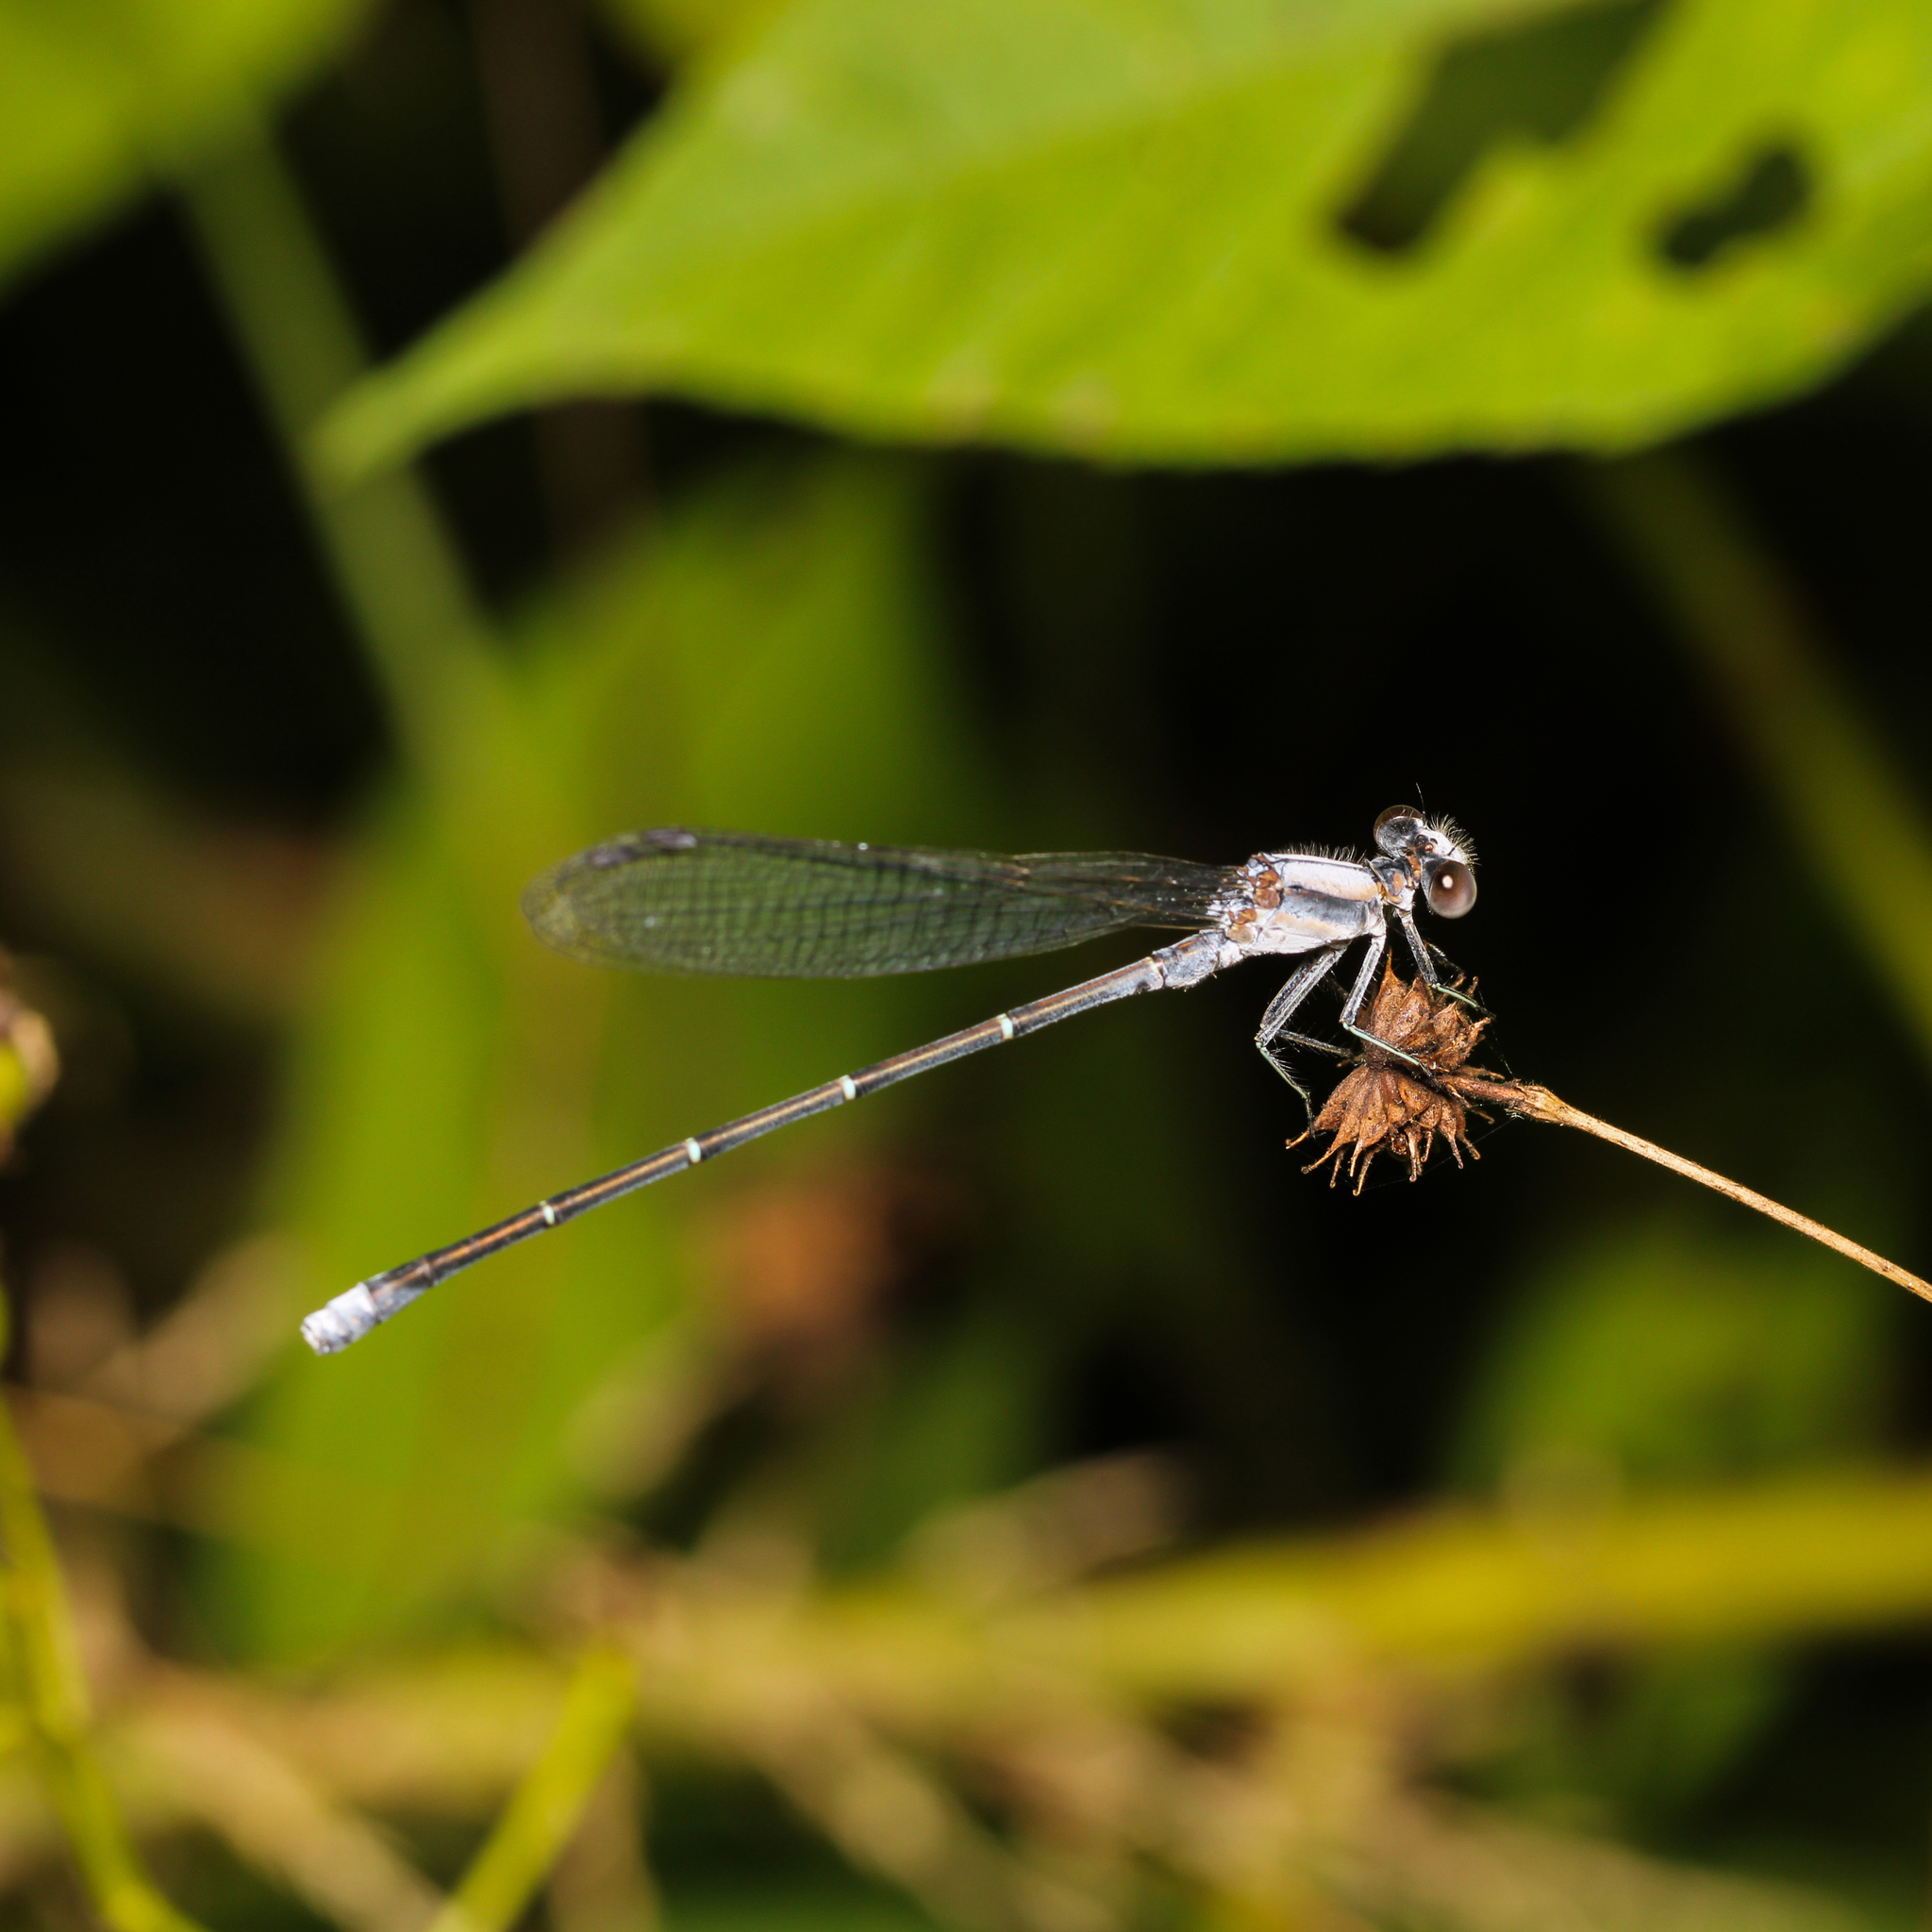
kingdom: Animalia
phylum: Arthropoda
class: Insecta
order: Odonata
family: Coenagrionidae
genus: Argia
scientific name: Argia moesta
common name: Powdered dancer
